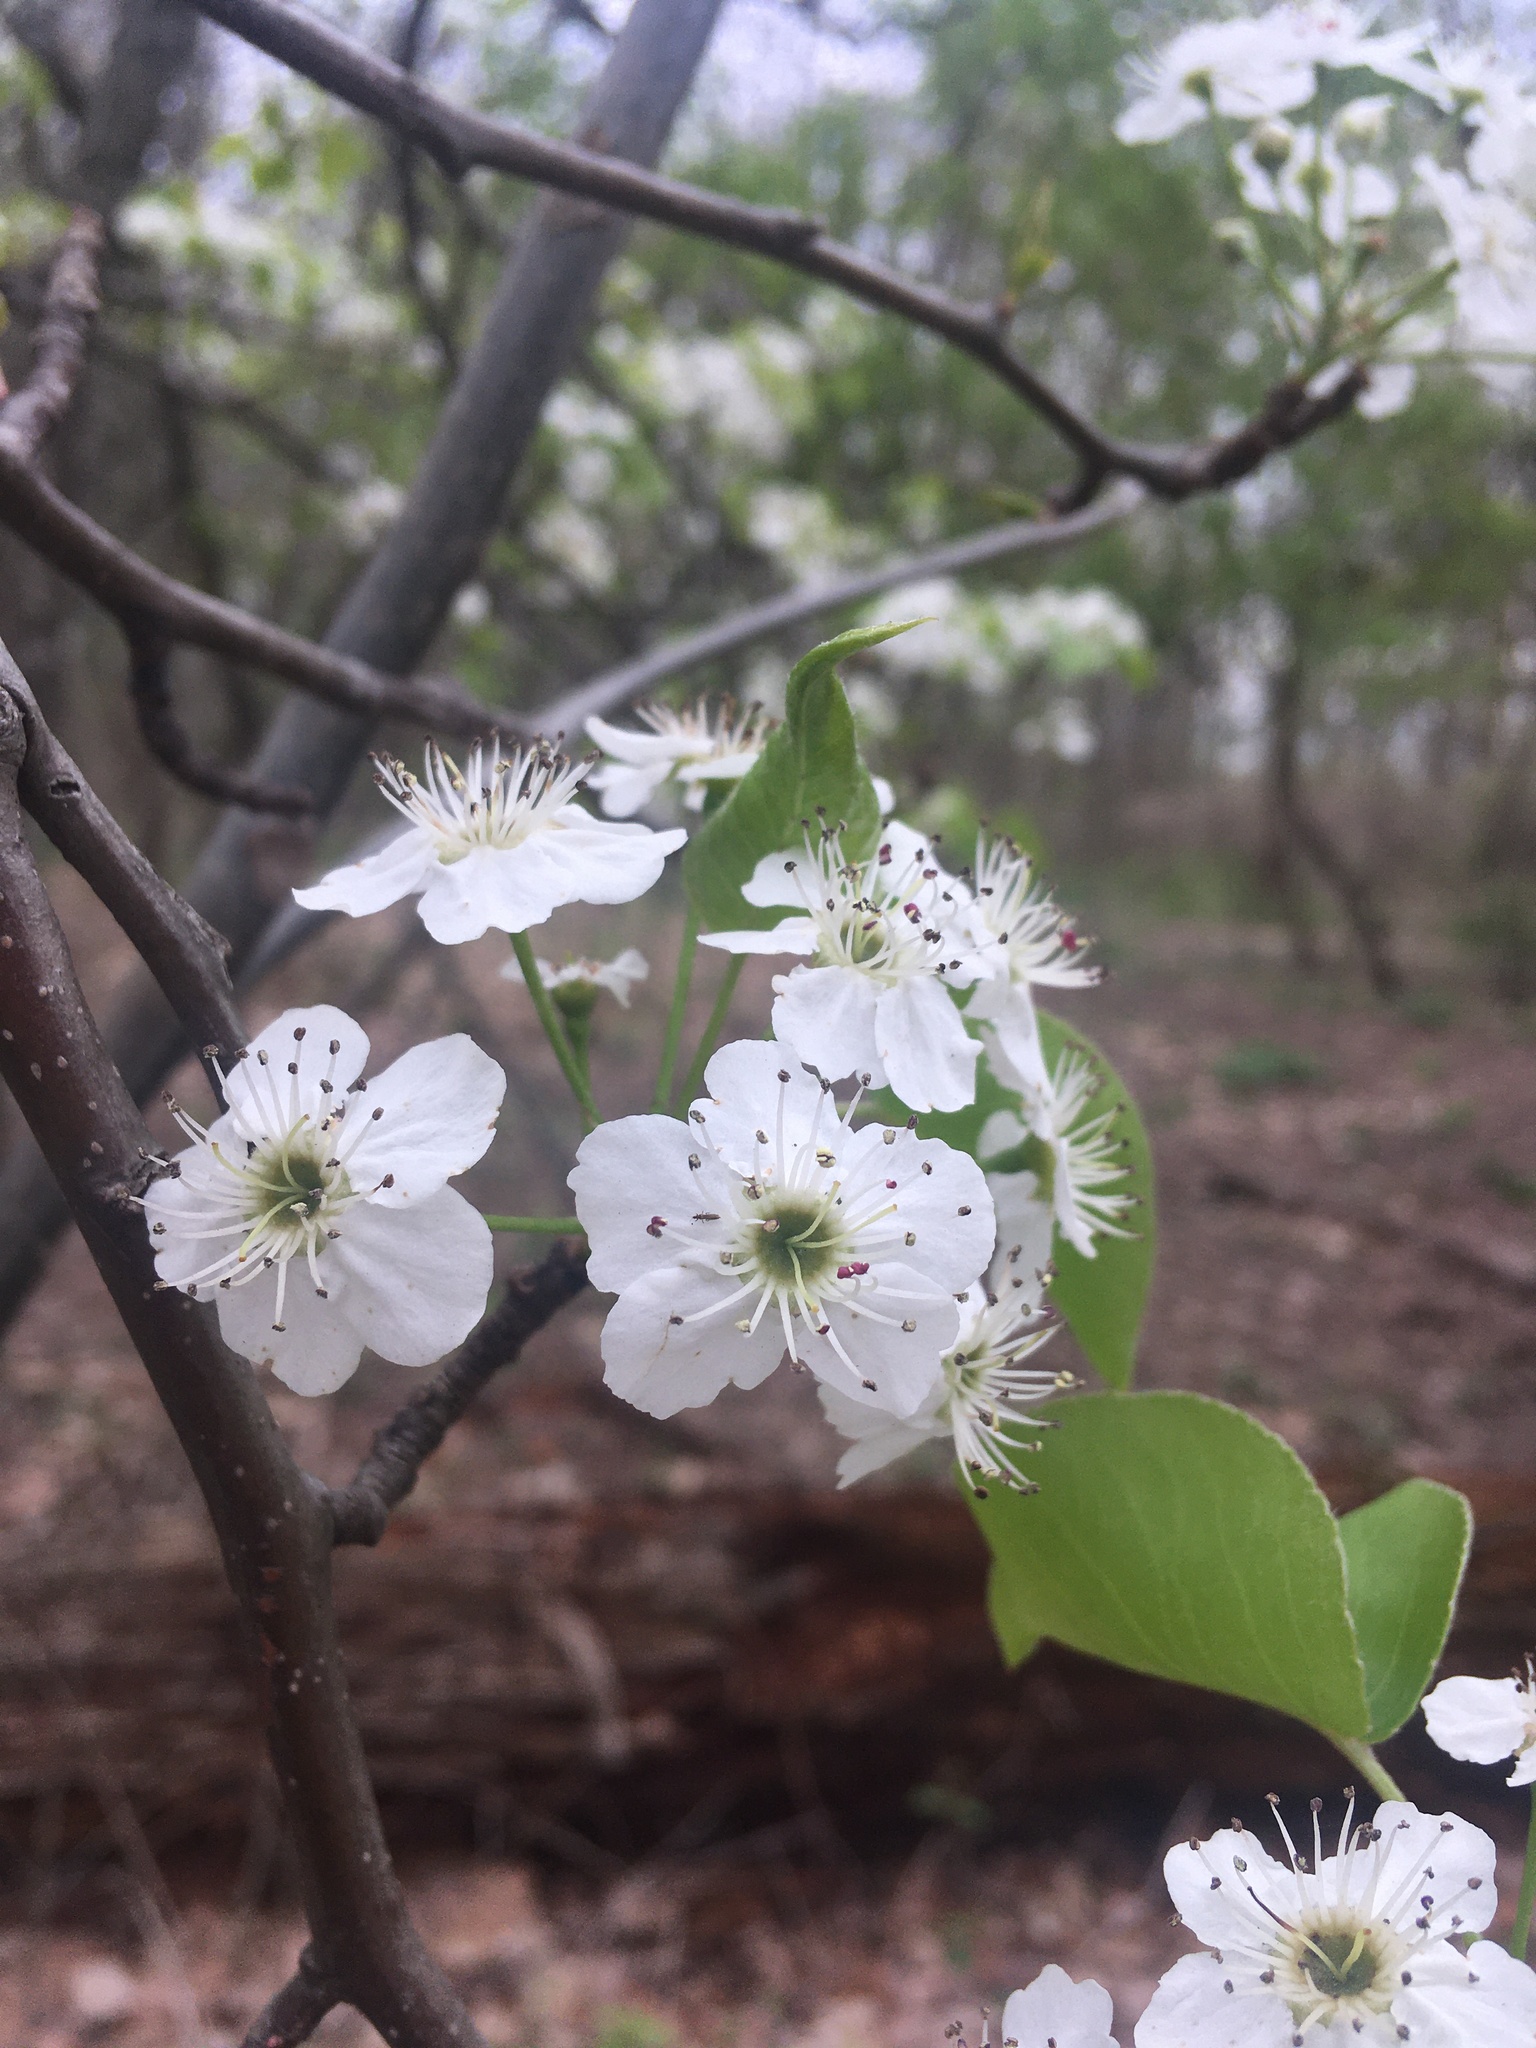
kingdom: Plantae
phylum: Tracheophyta
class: Magnoliopsida
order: Rosales
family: Rosaceae
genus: Pyrus
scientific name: Pyrus calleryana
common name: Callery pear
